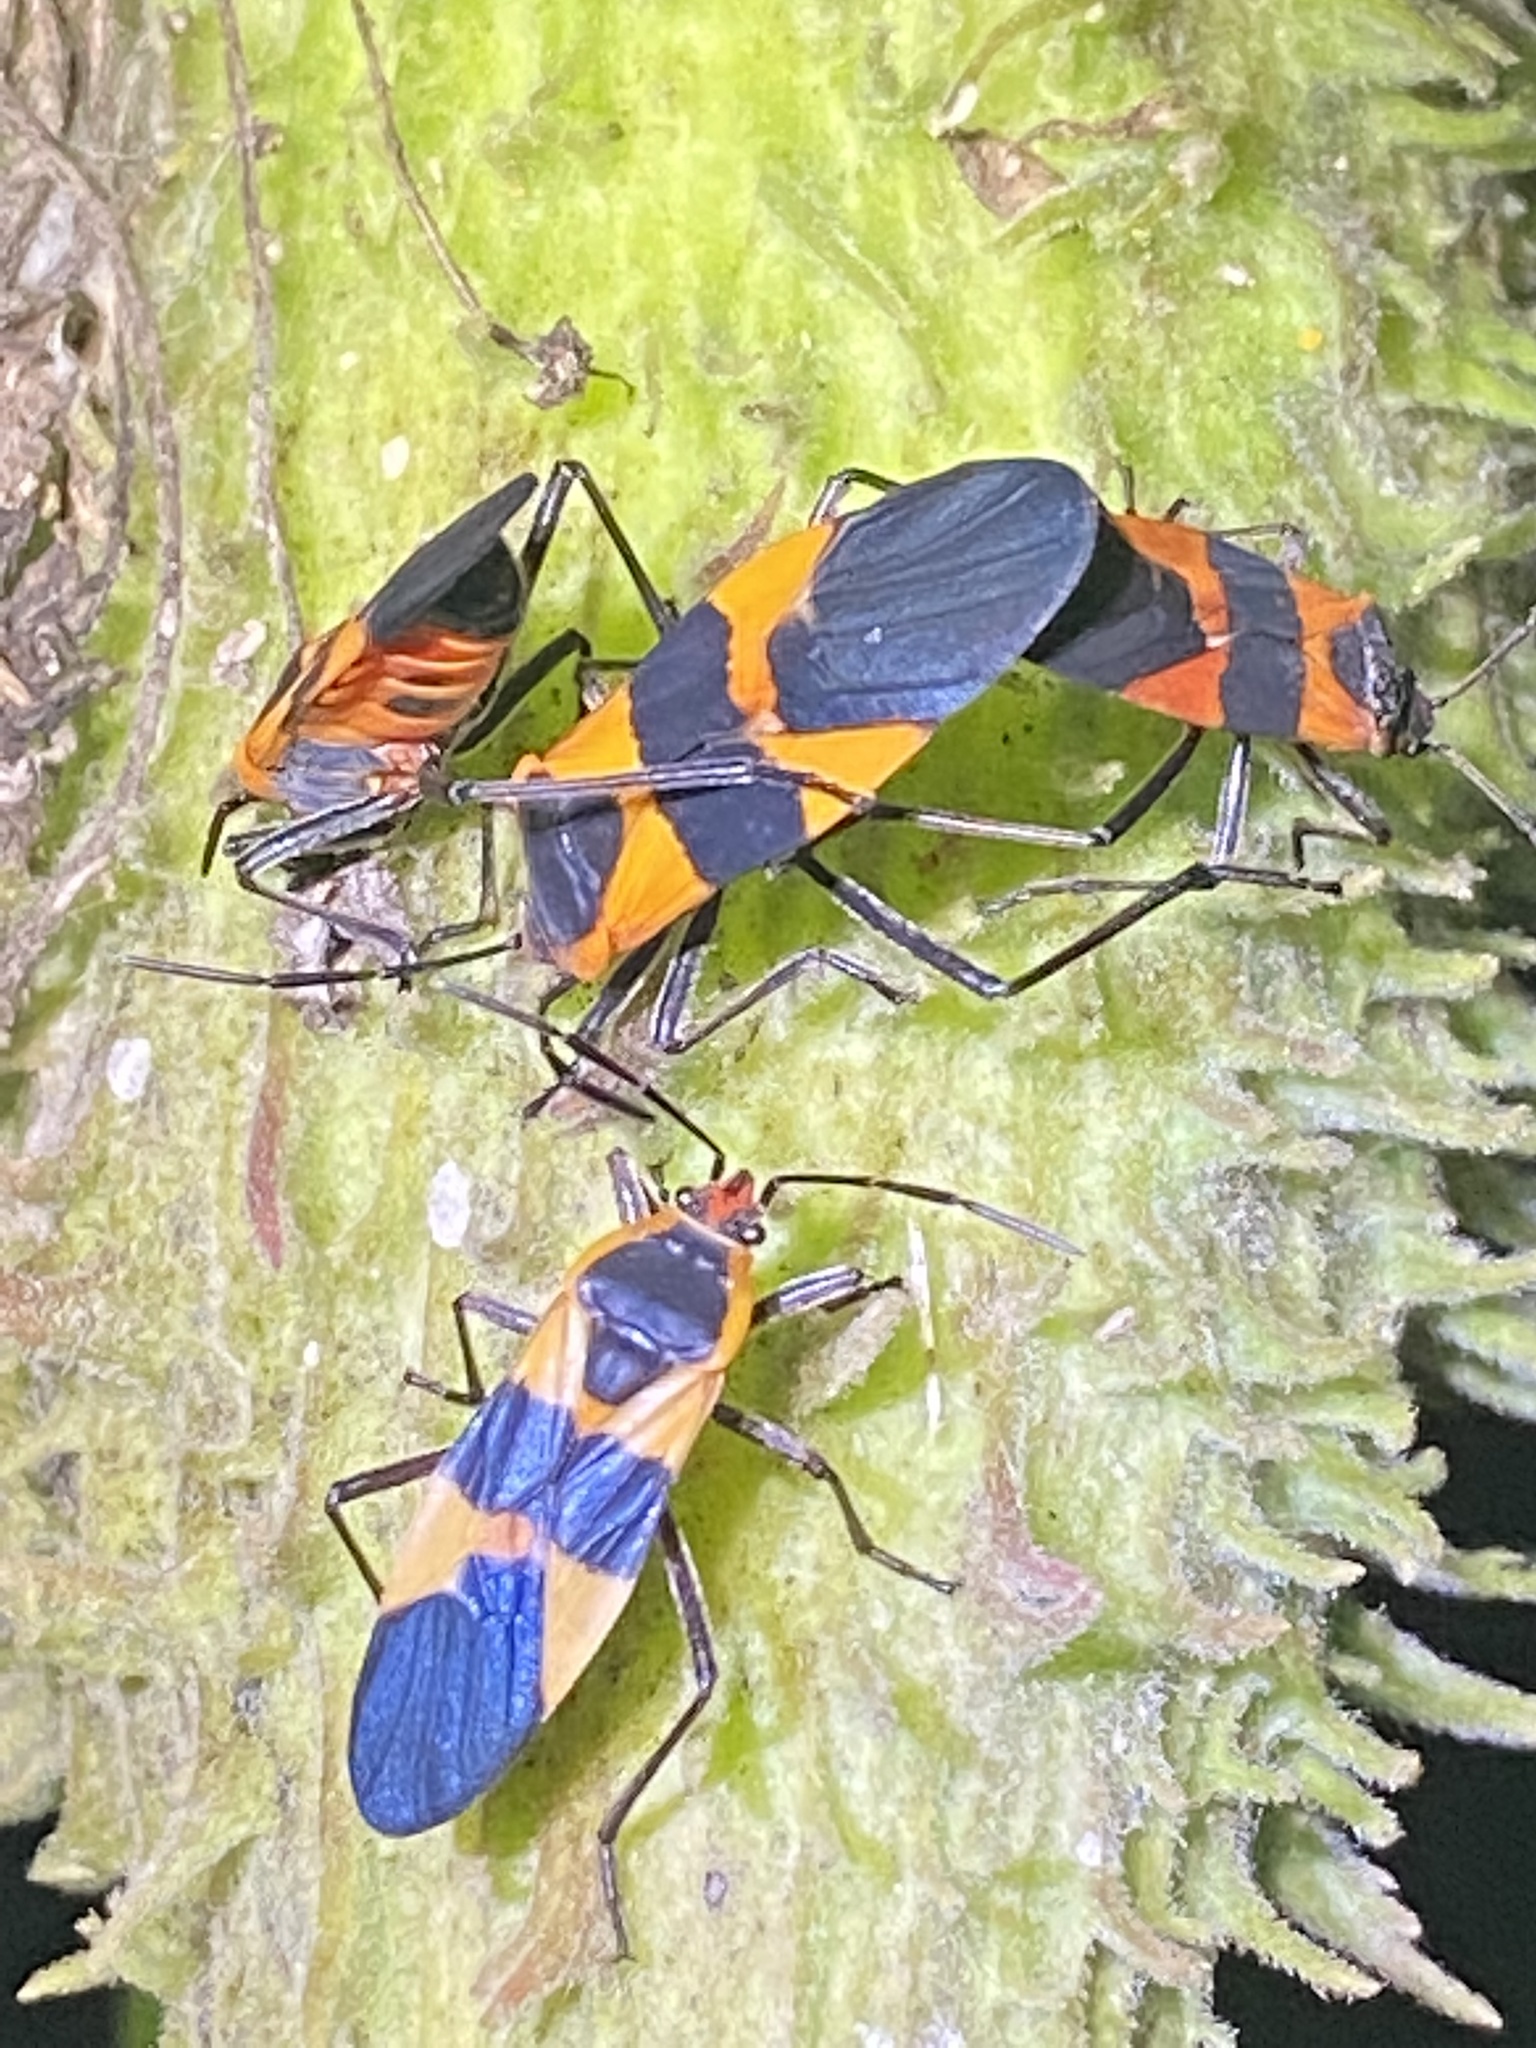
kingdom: Animalia
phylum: Arthropoda
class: Insecta
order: Hemiptera
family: Lygaeidae
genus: Oncopeltus
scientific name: Oncopeltus fasciatus
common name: Large milkweed bug
